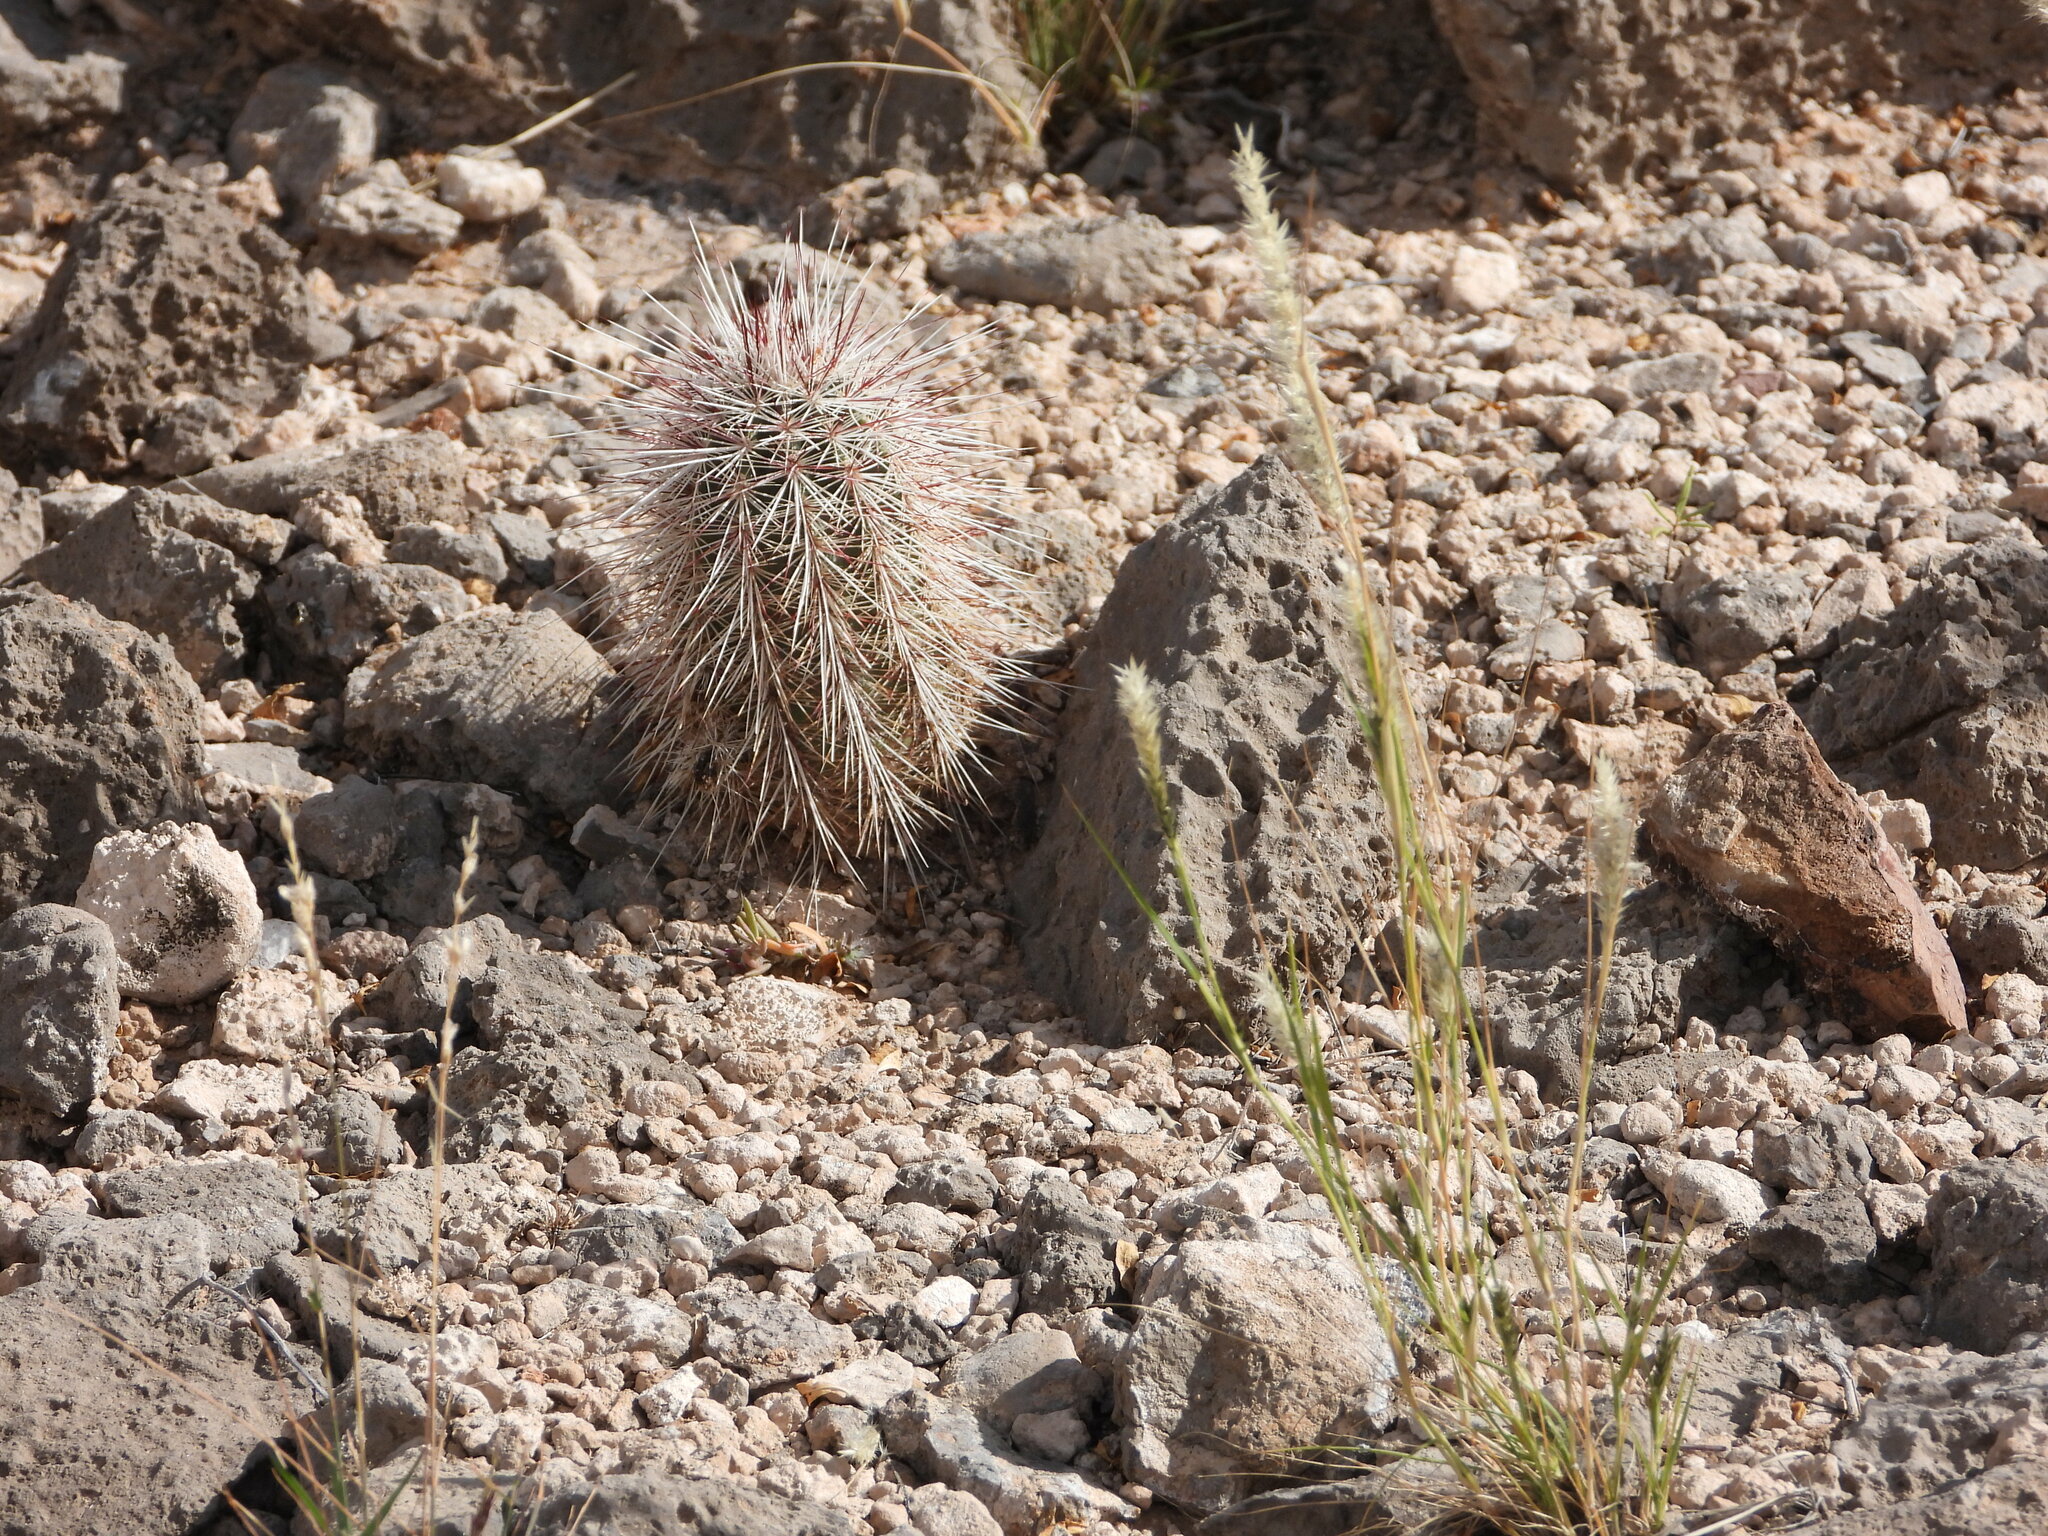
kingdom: Plantae
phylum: Tracheophyta
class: Magnoliopsida
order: Caryophyllales
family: Cactaceae
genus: Echinocereus
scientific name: Echinocereus viridiflorus
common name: Nylon hedgehog cactus
